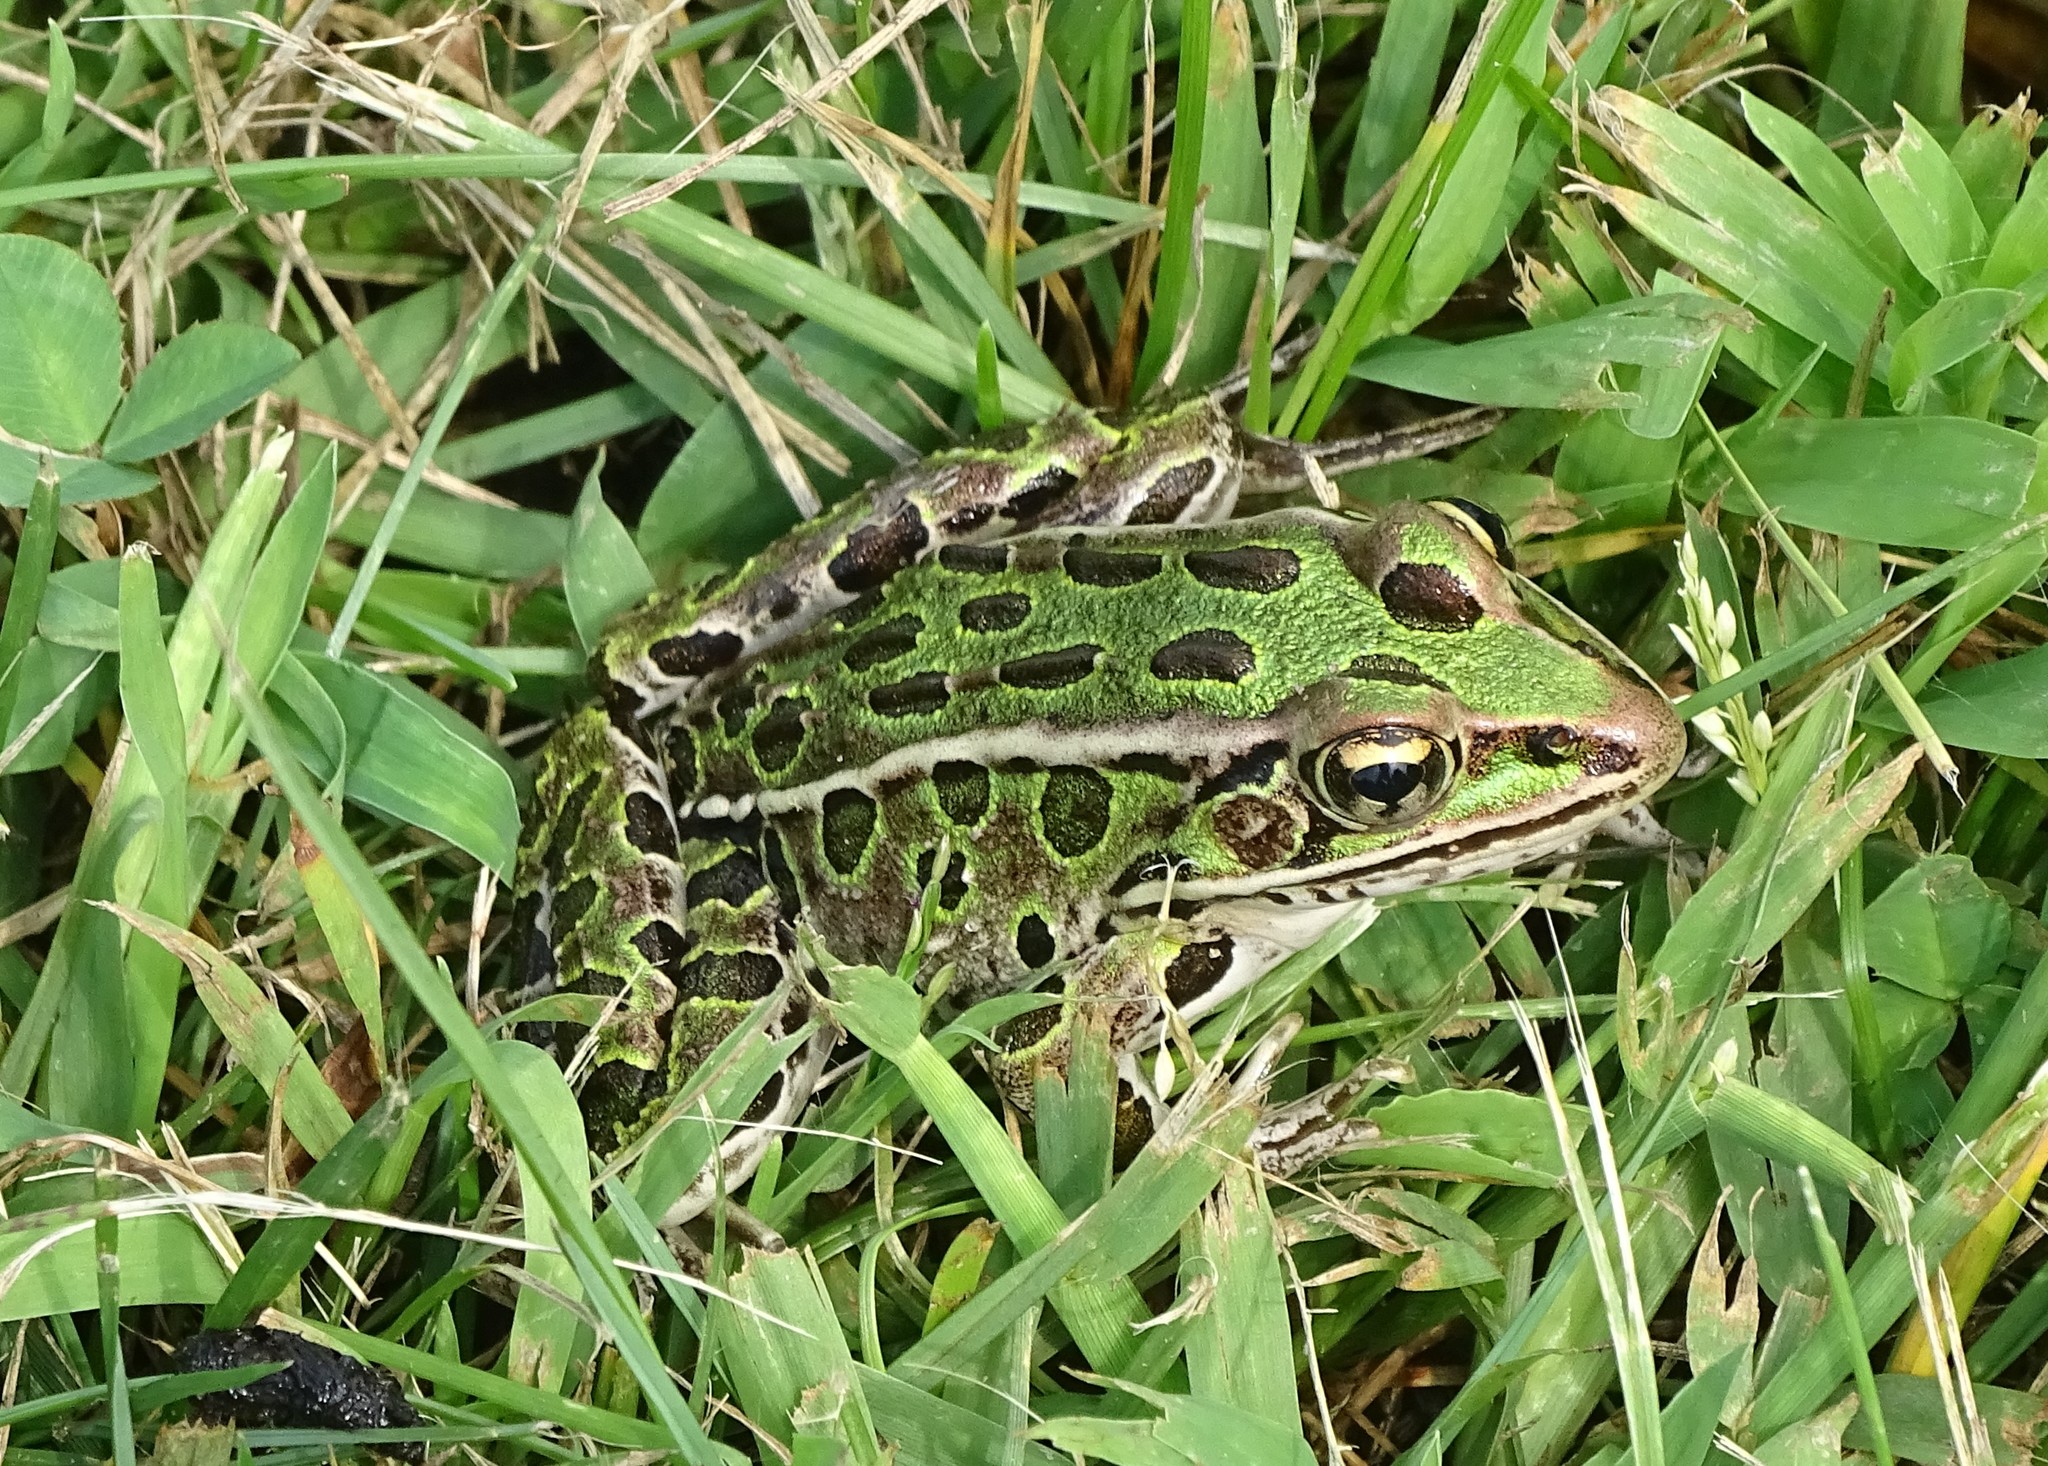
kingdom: Animalia
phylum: Chordata
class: Amphibia
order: Anura
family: Ranidae
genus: Lithobates
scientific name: Lithobates pipiens
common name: Northern leopard frog
